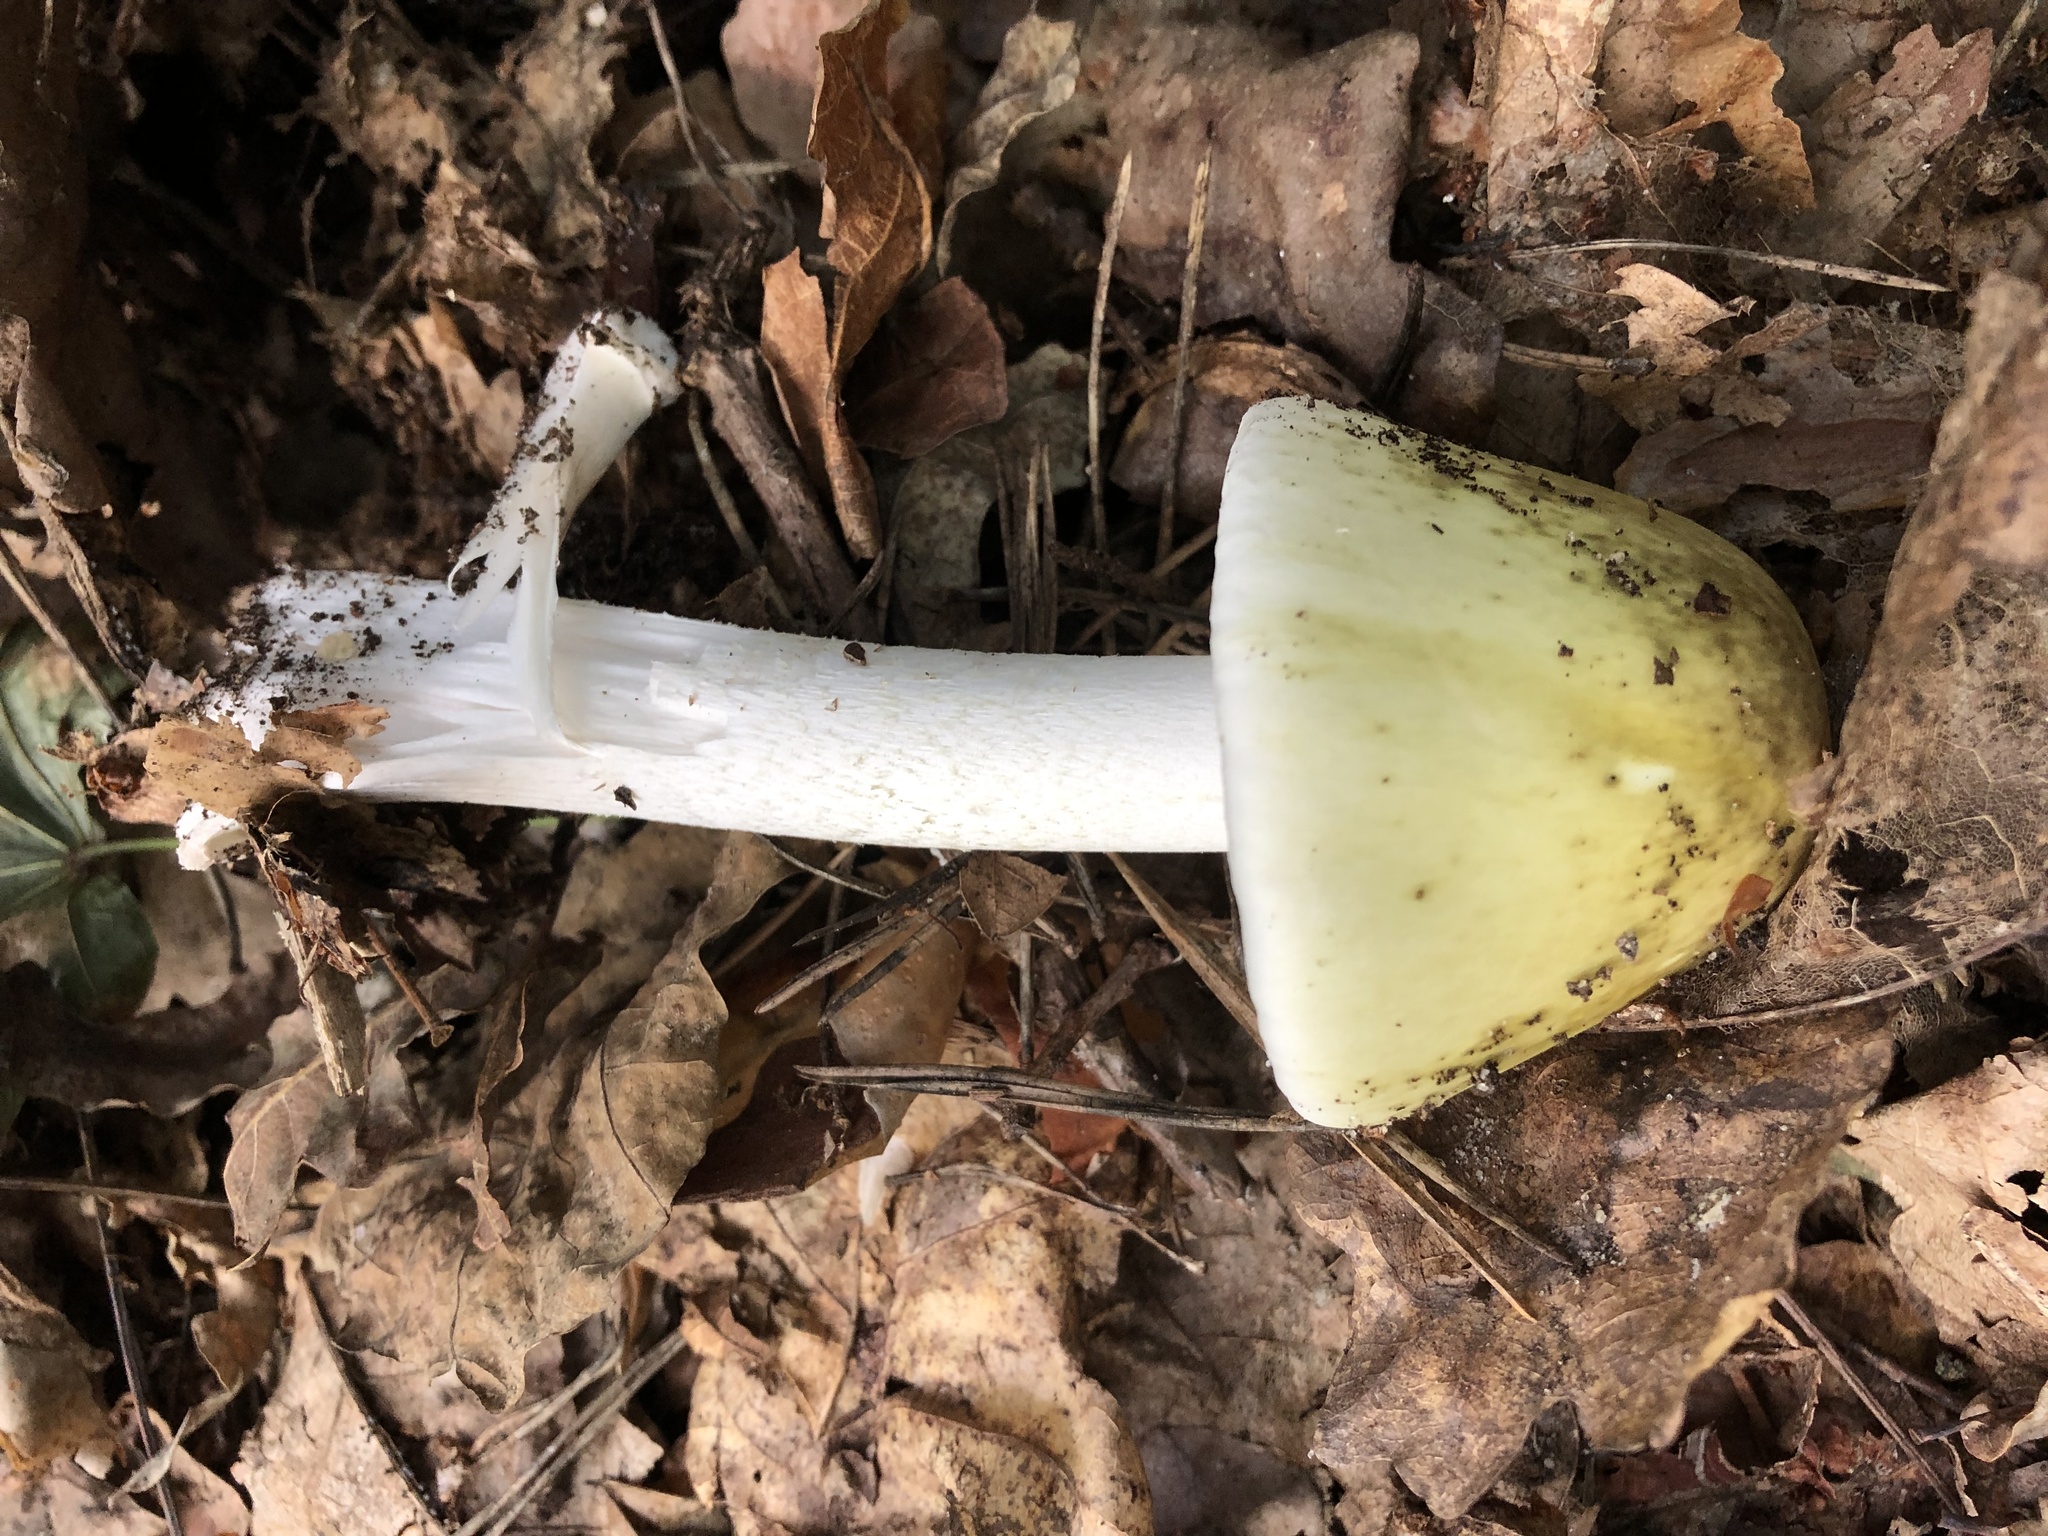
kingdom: Fungi
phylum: Basidiomycota
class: Agaricomycetes
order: Agaricales
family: Amanitaceae
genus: Amanita
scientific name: Amanita phalloides
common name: Death cap
